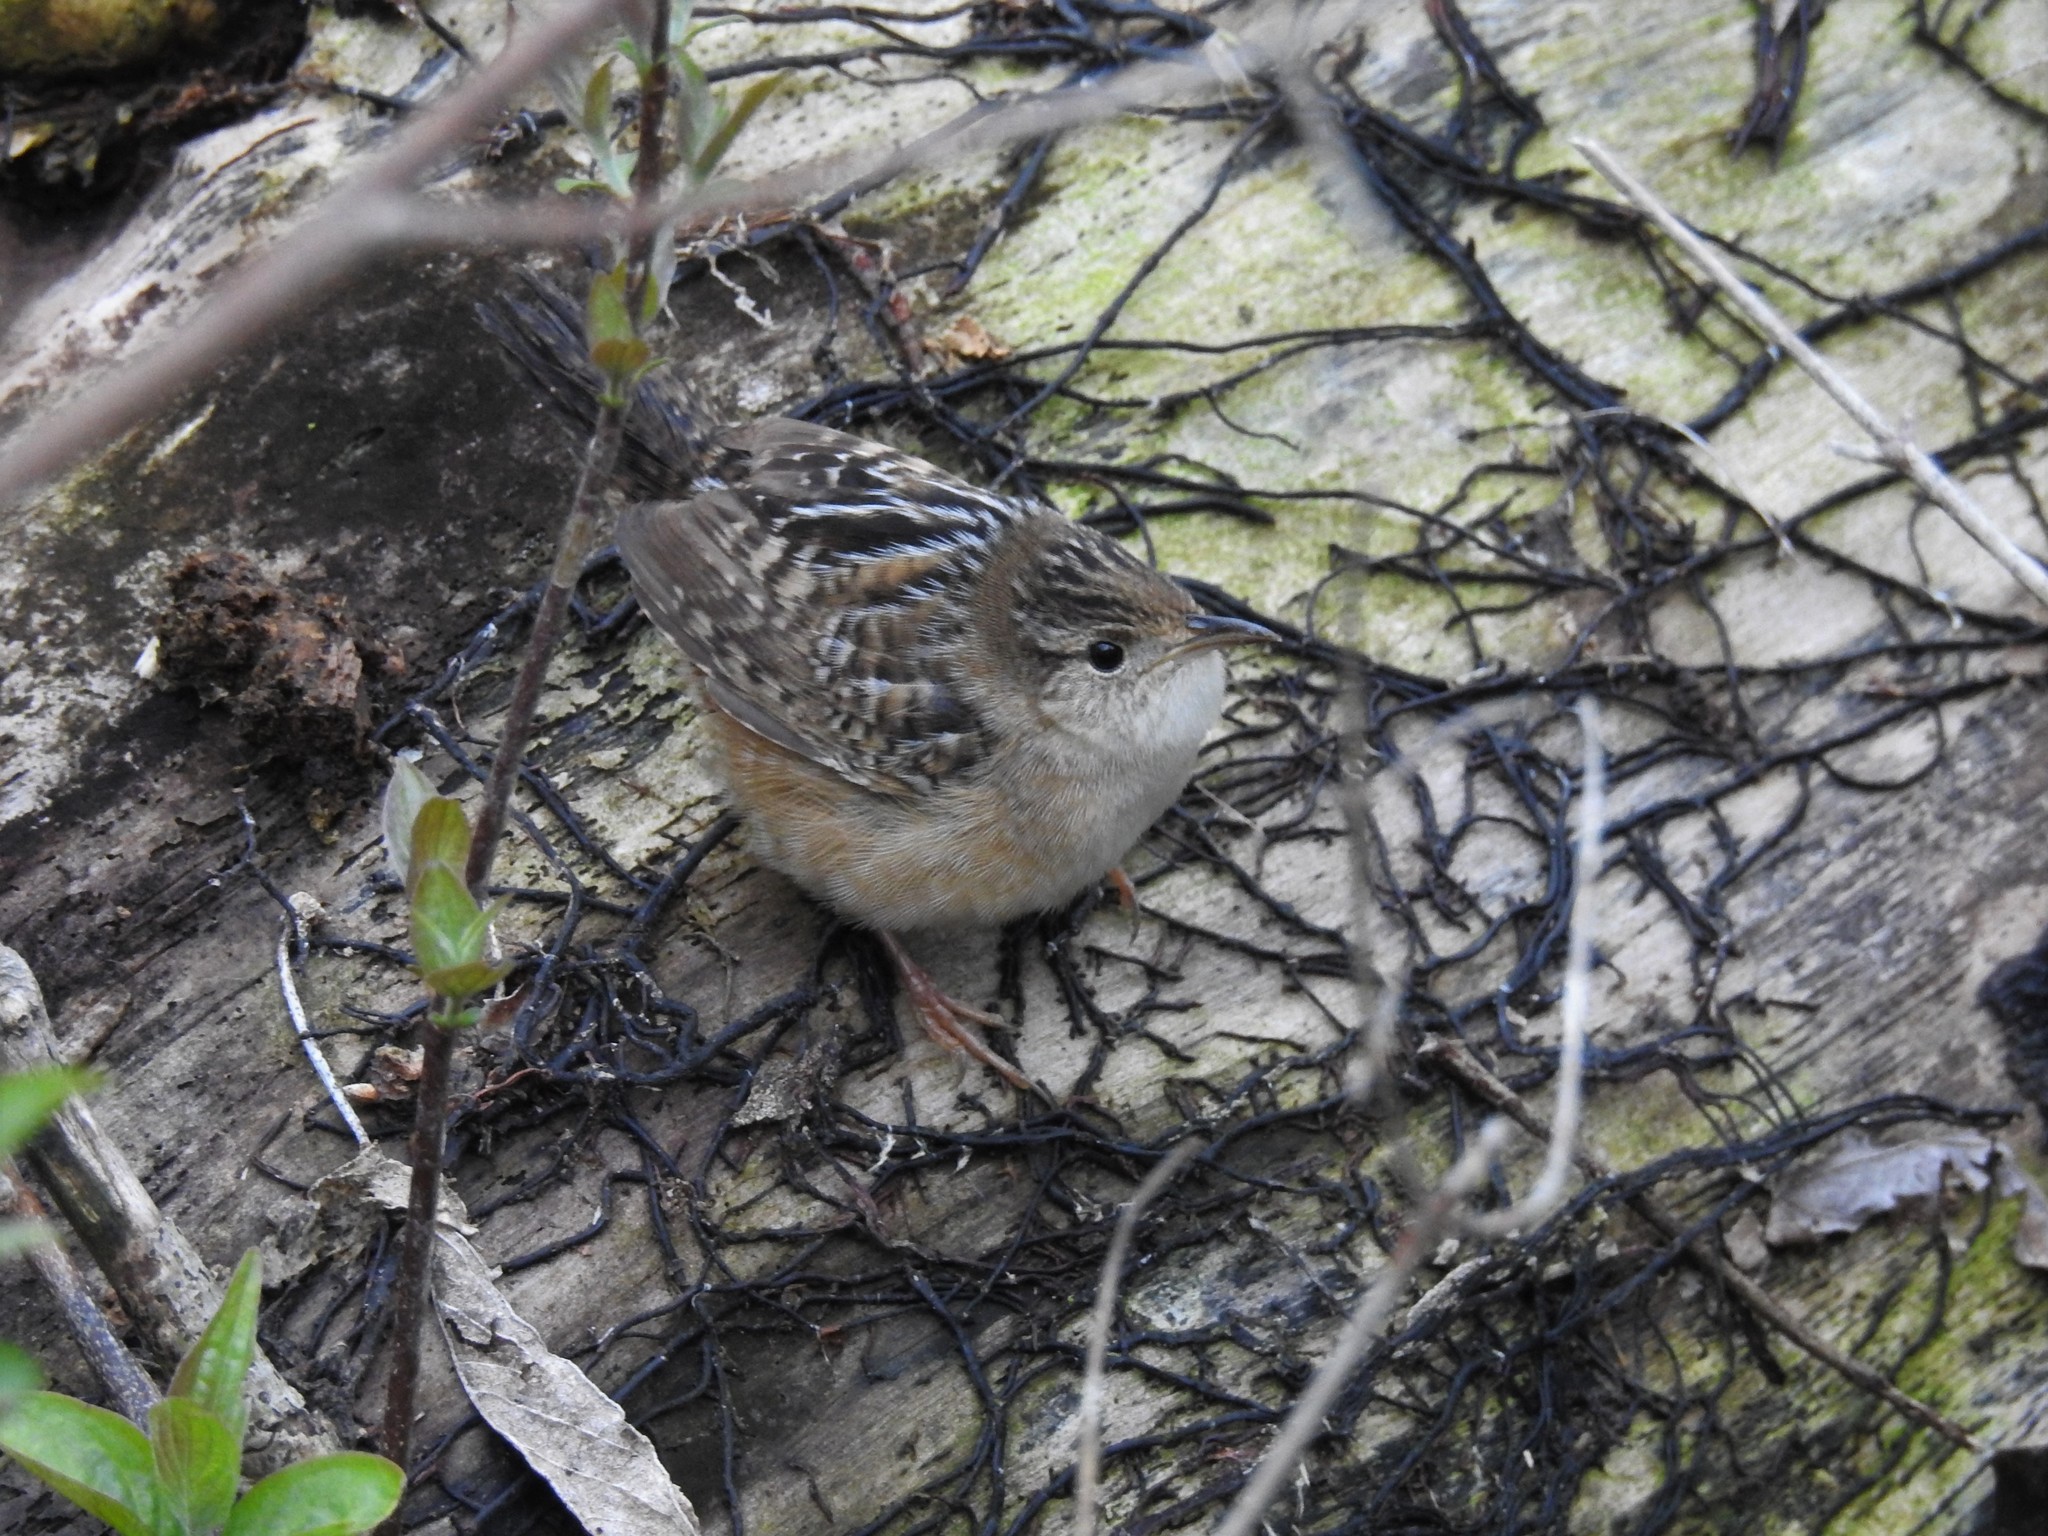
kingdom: Animalia
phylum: Chordata
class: Aves
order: Passeriformes
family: Troglodytidae
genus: Cistothorus
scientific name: Cistothorus platensis
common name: Sedge wren
